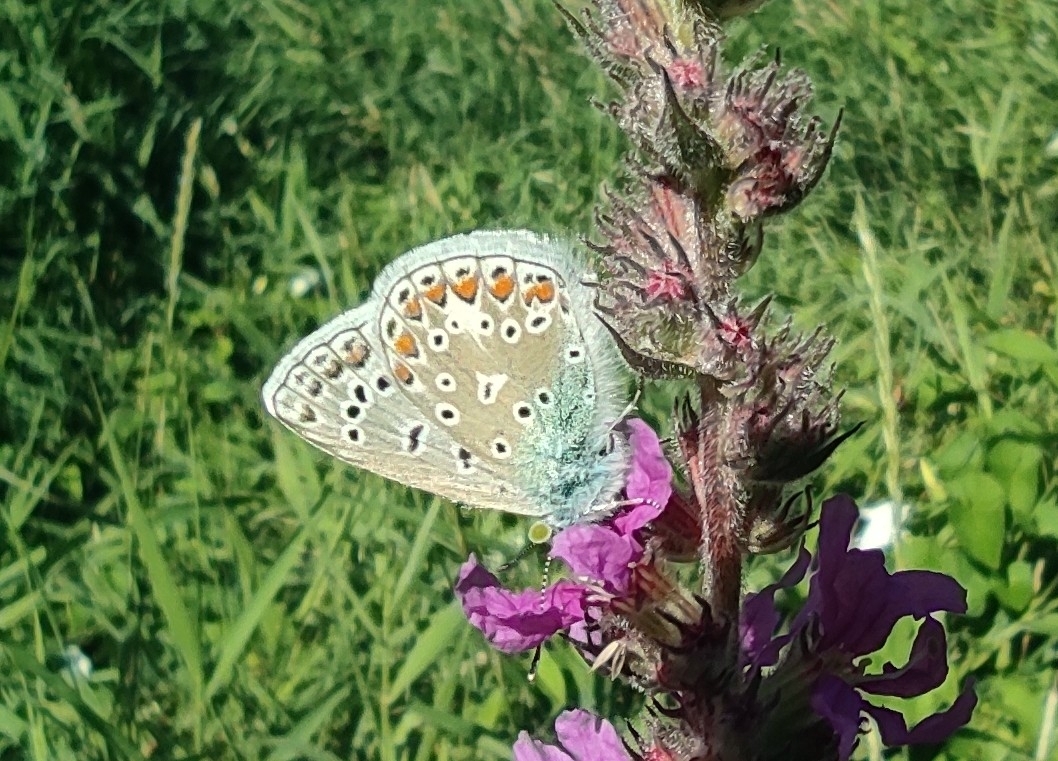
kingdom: Animalia
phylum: Arthropoda
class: Insecta
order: Lepidoptera
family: Lycaenidae
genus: Polyommatus
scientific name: Polyommatus icarus
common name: Common blue
